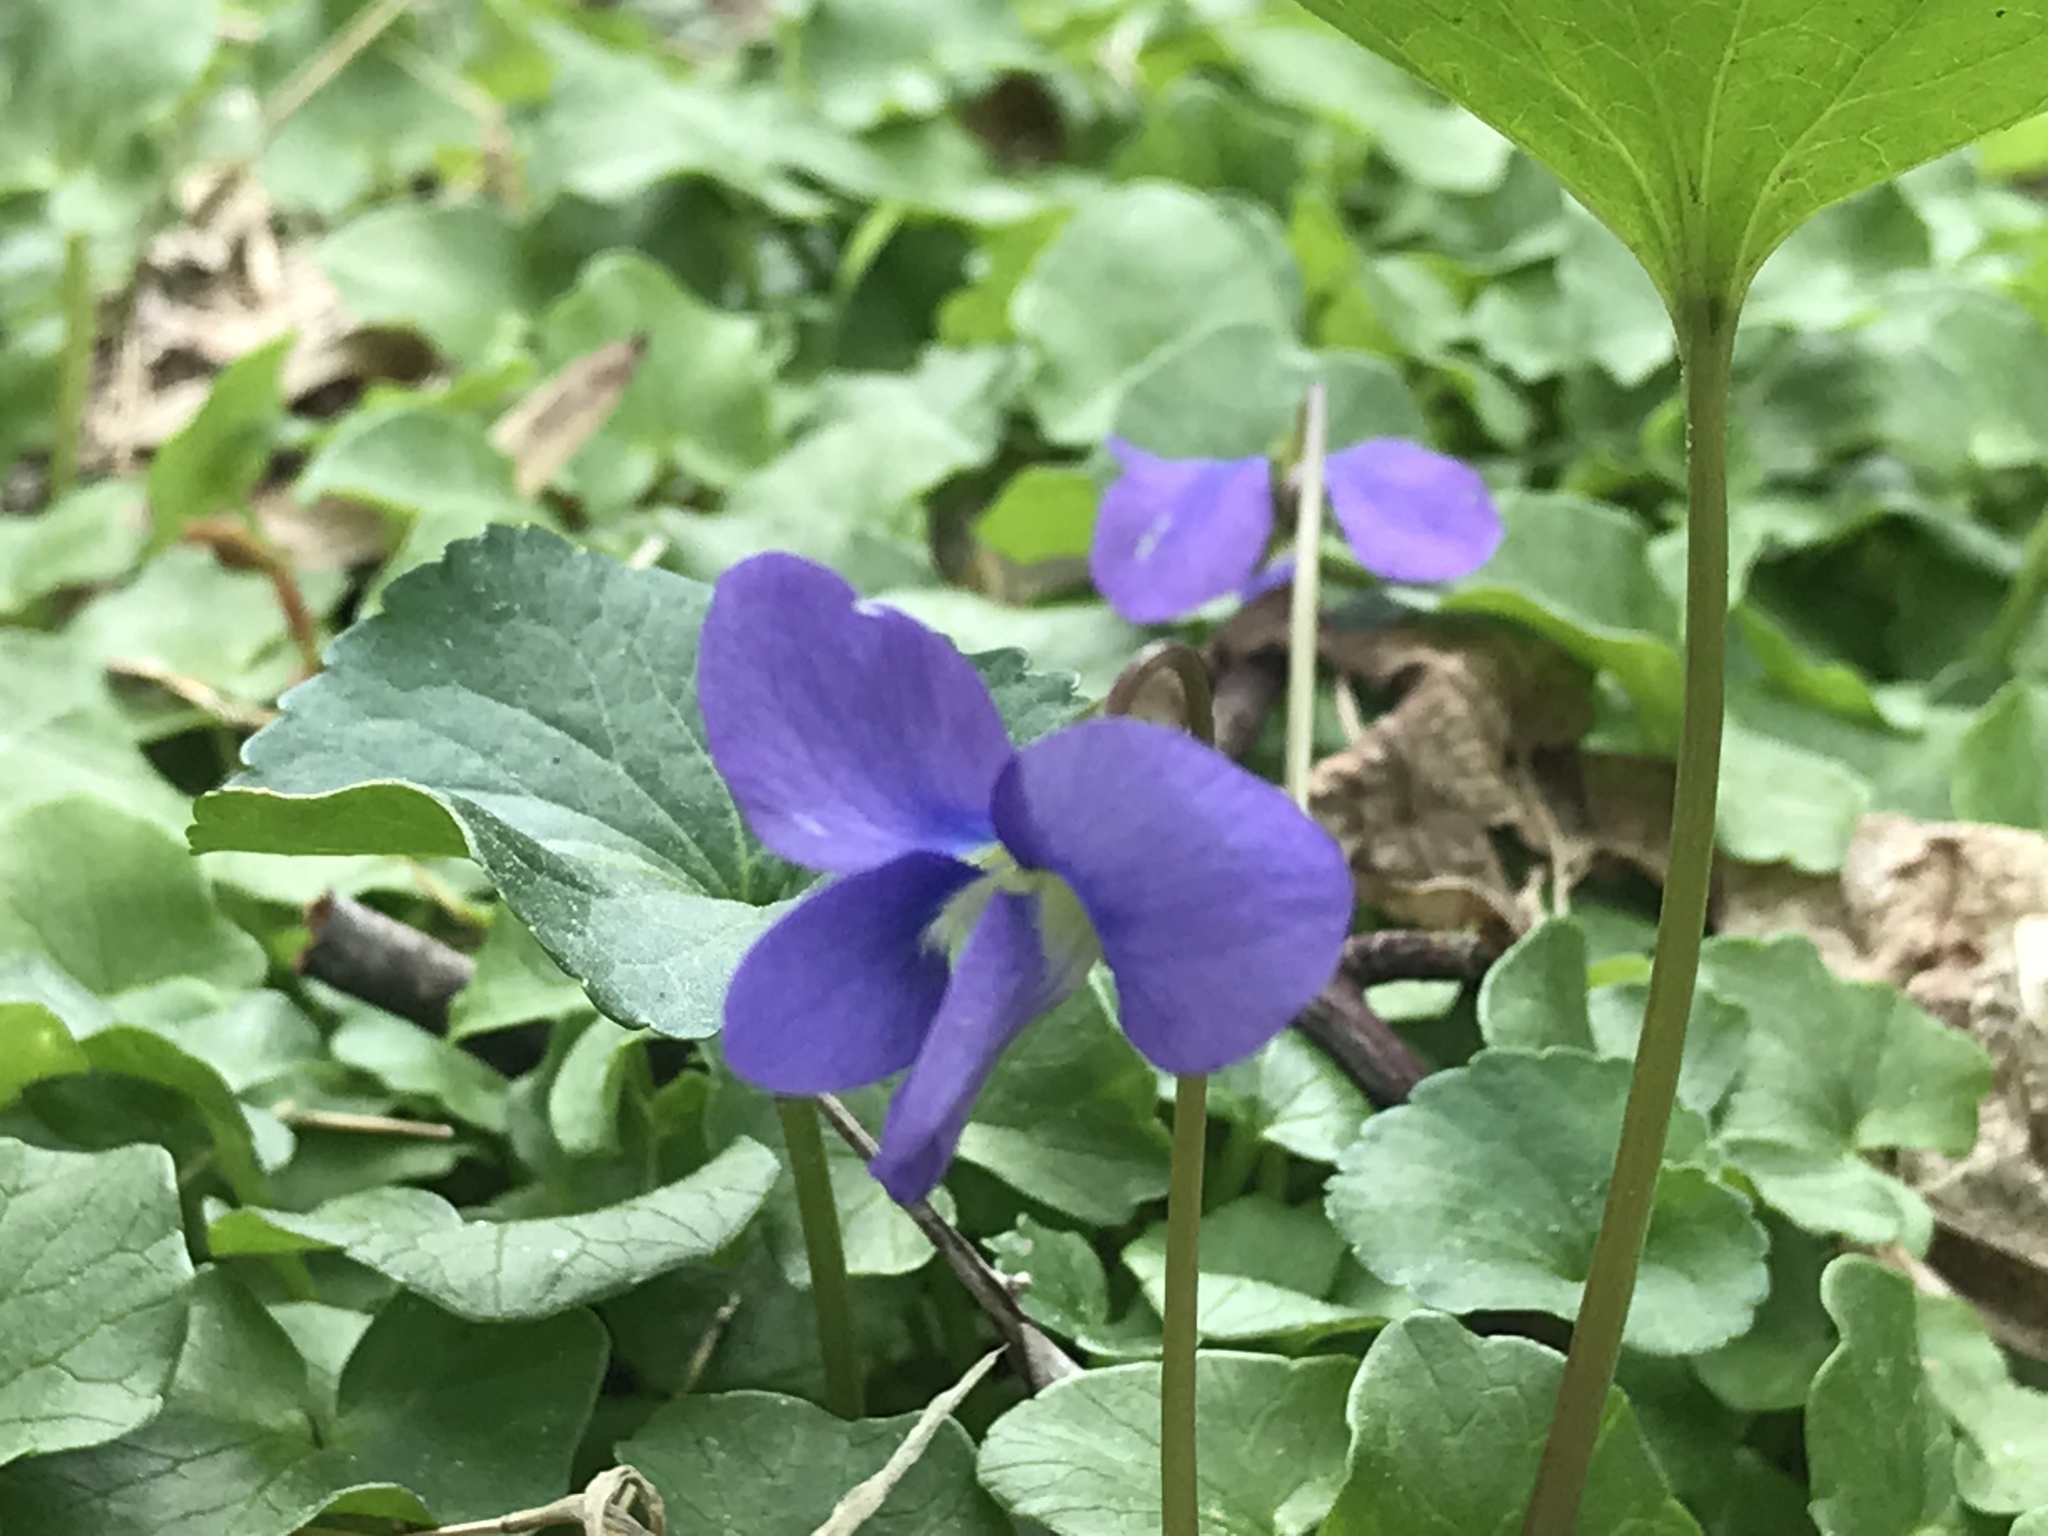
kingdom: Plantae
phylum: Tracheophyta
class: Magnoliopsida
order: Malpighiales
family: Violaceae
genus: Viola
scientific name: Viola sororia
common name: Dooryard violet
